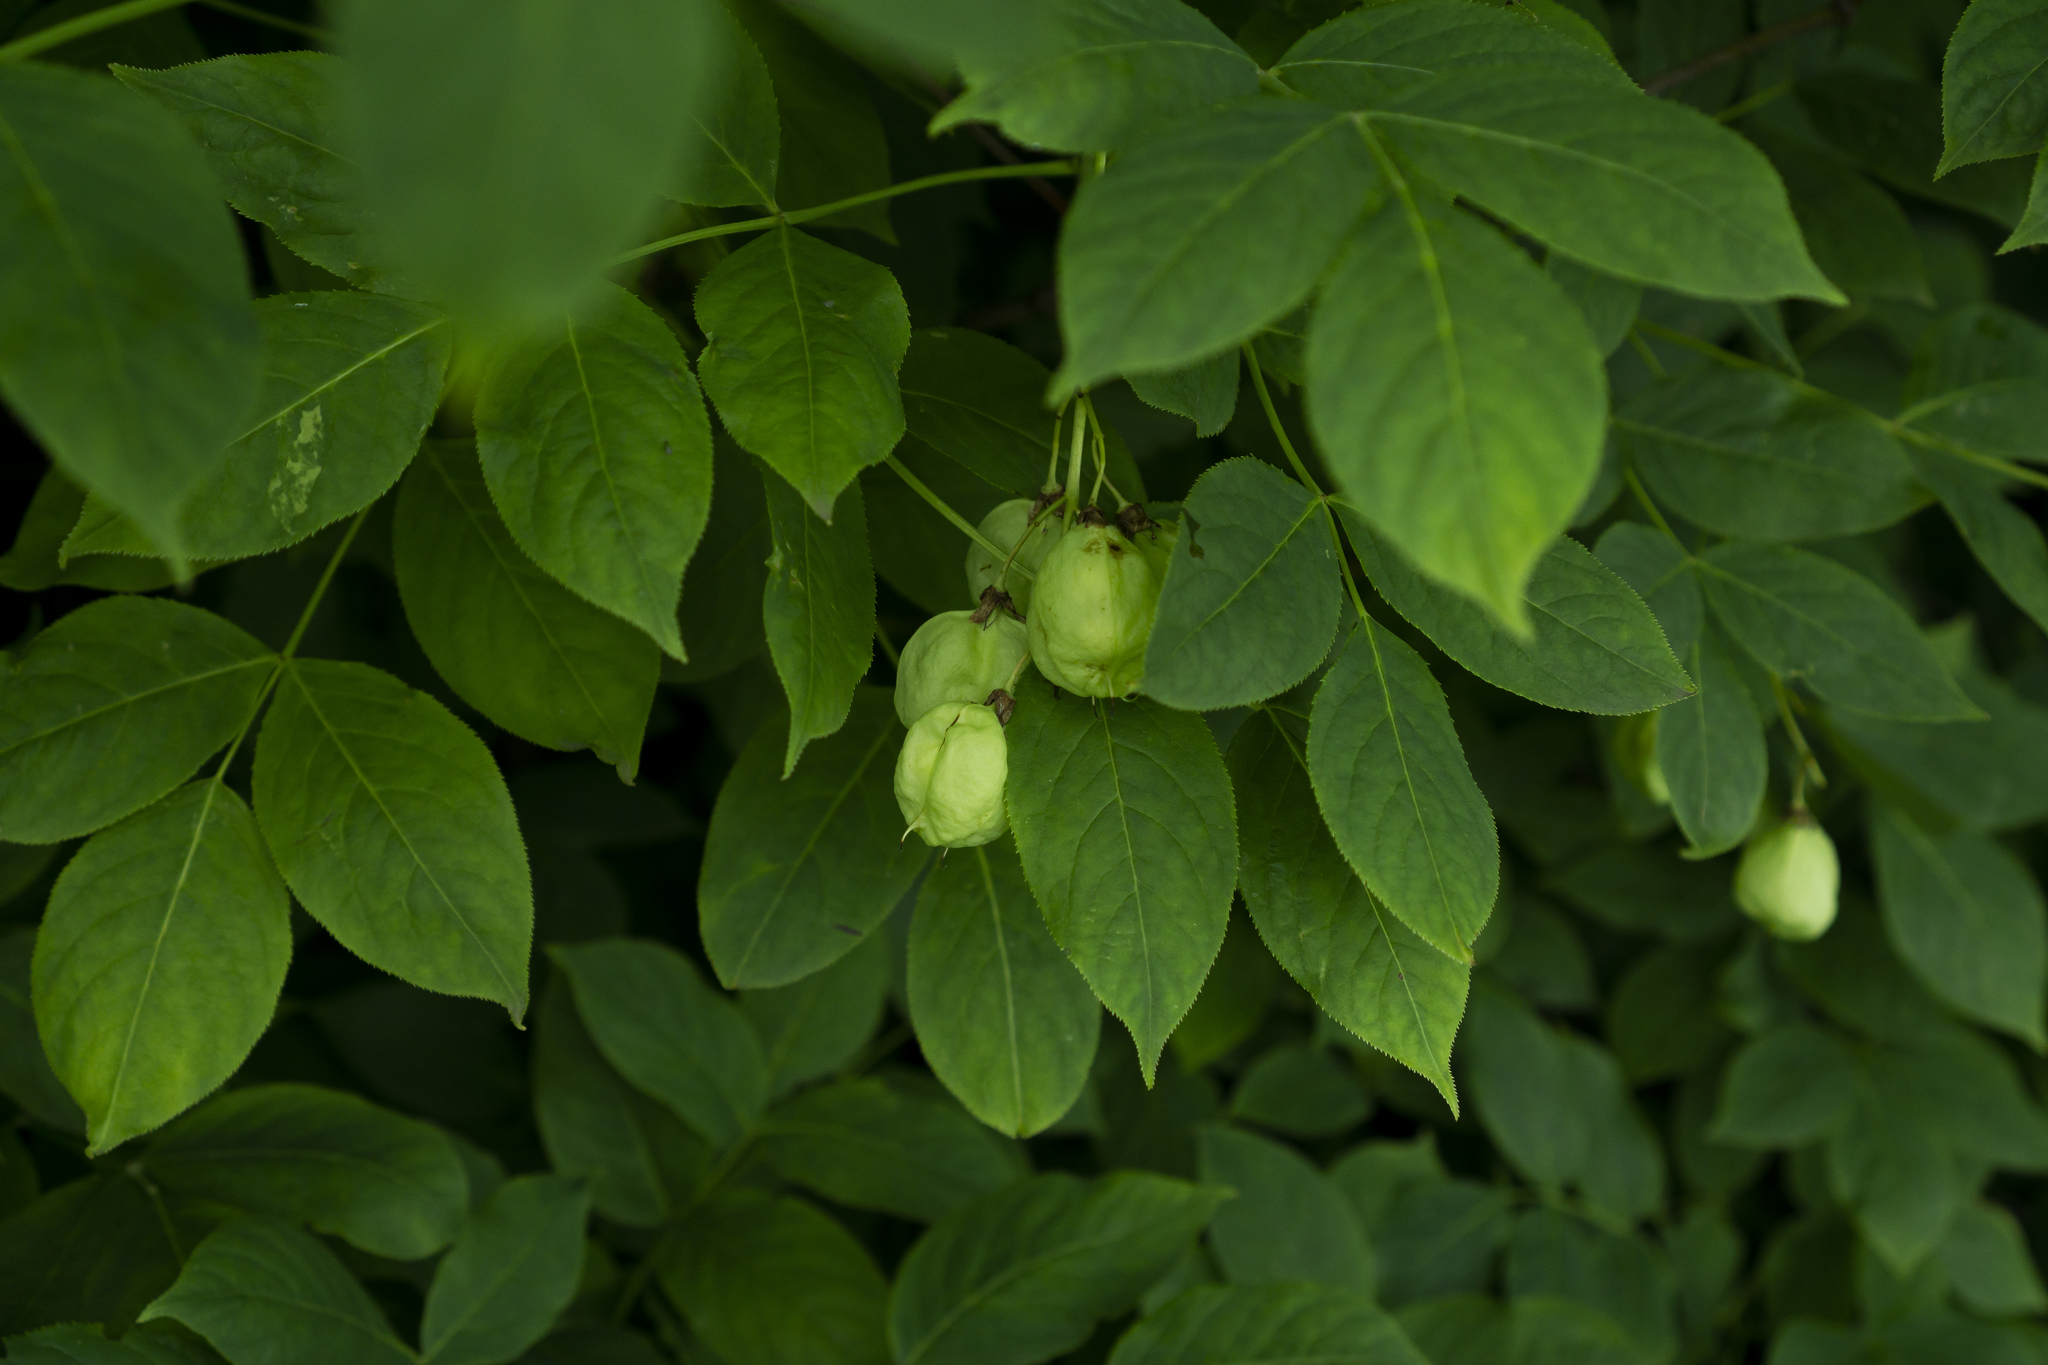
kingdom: Plantae
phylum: Tracheophyta
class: Magnoliopsida
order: Crossosomatales
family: Staphyleaceae
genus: Staphylea
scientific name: Staphylea pinnata
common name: Bladdernut
